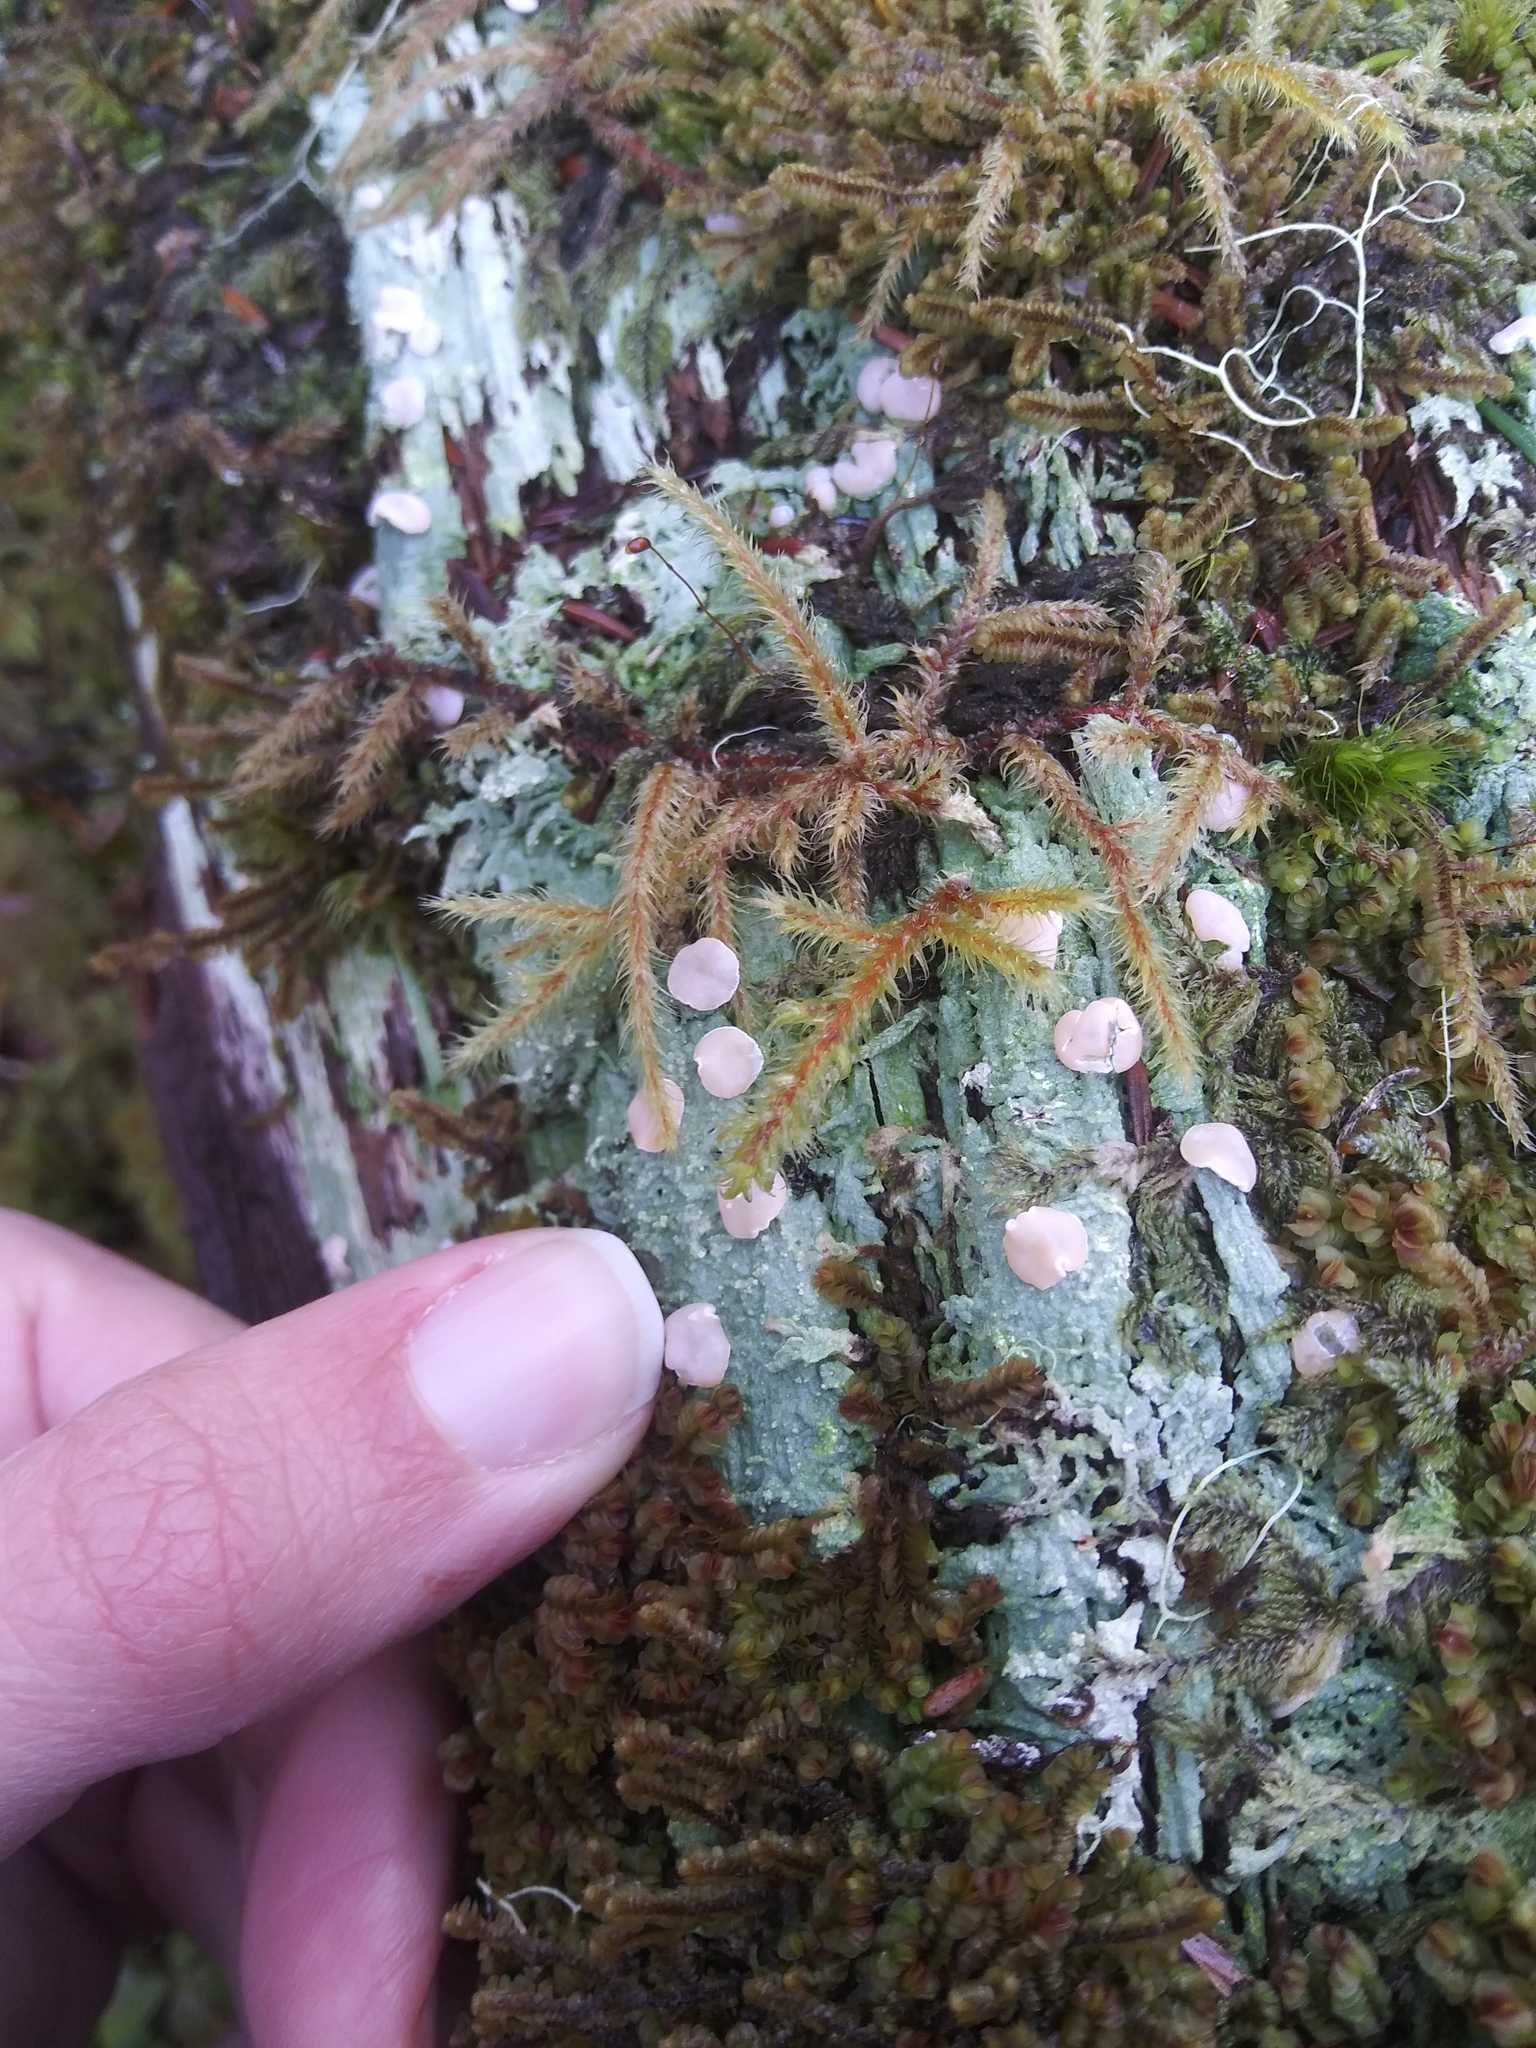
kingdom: Fungi
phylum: Ascomycota
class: Lecanoromycetes
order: Pertusariales
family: Icmadophilaceae
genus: Icmadophila
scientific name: Icmadophila ericetorum
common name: Candy lichen
